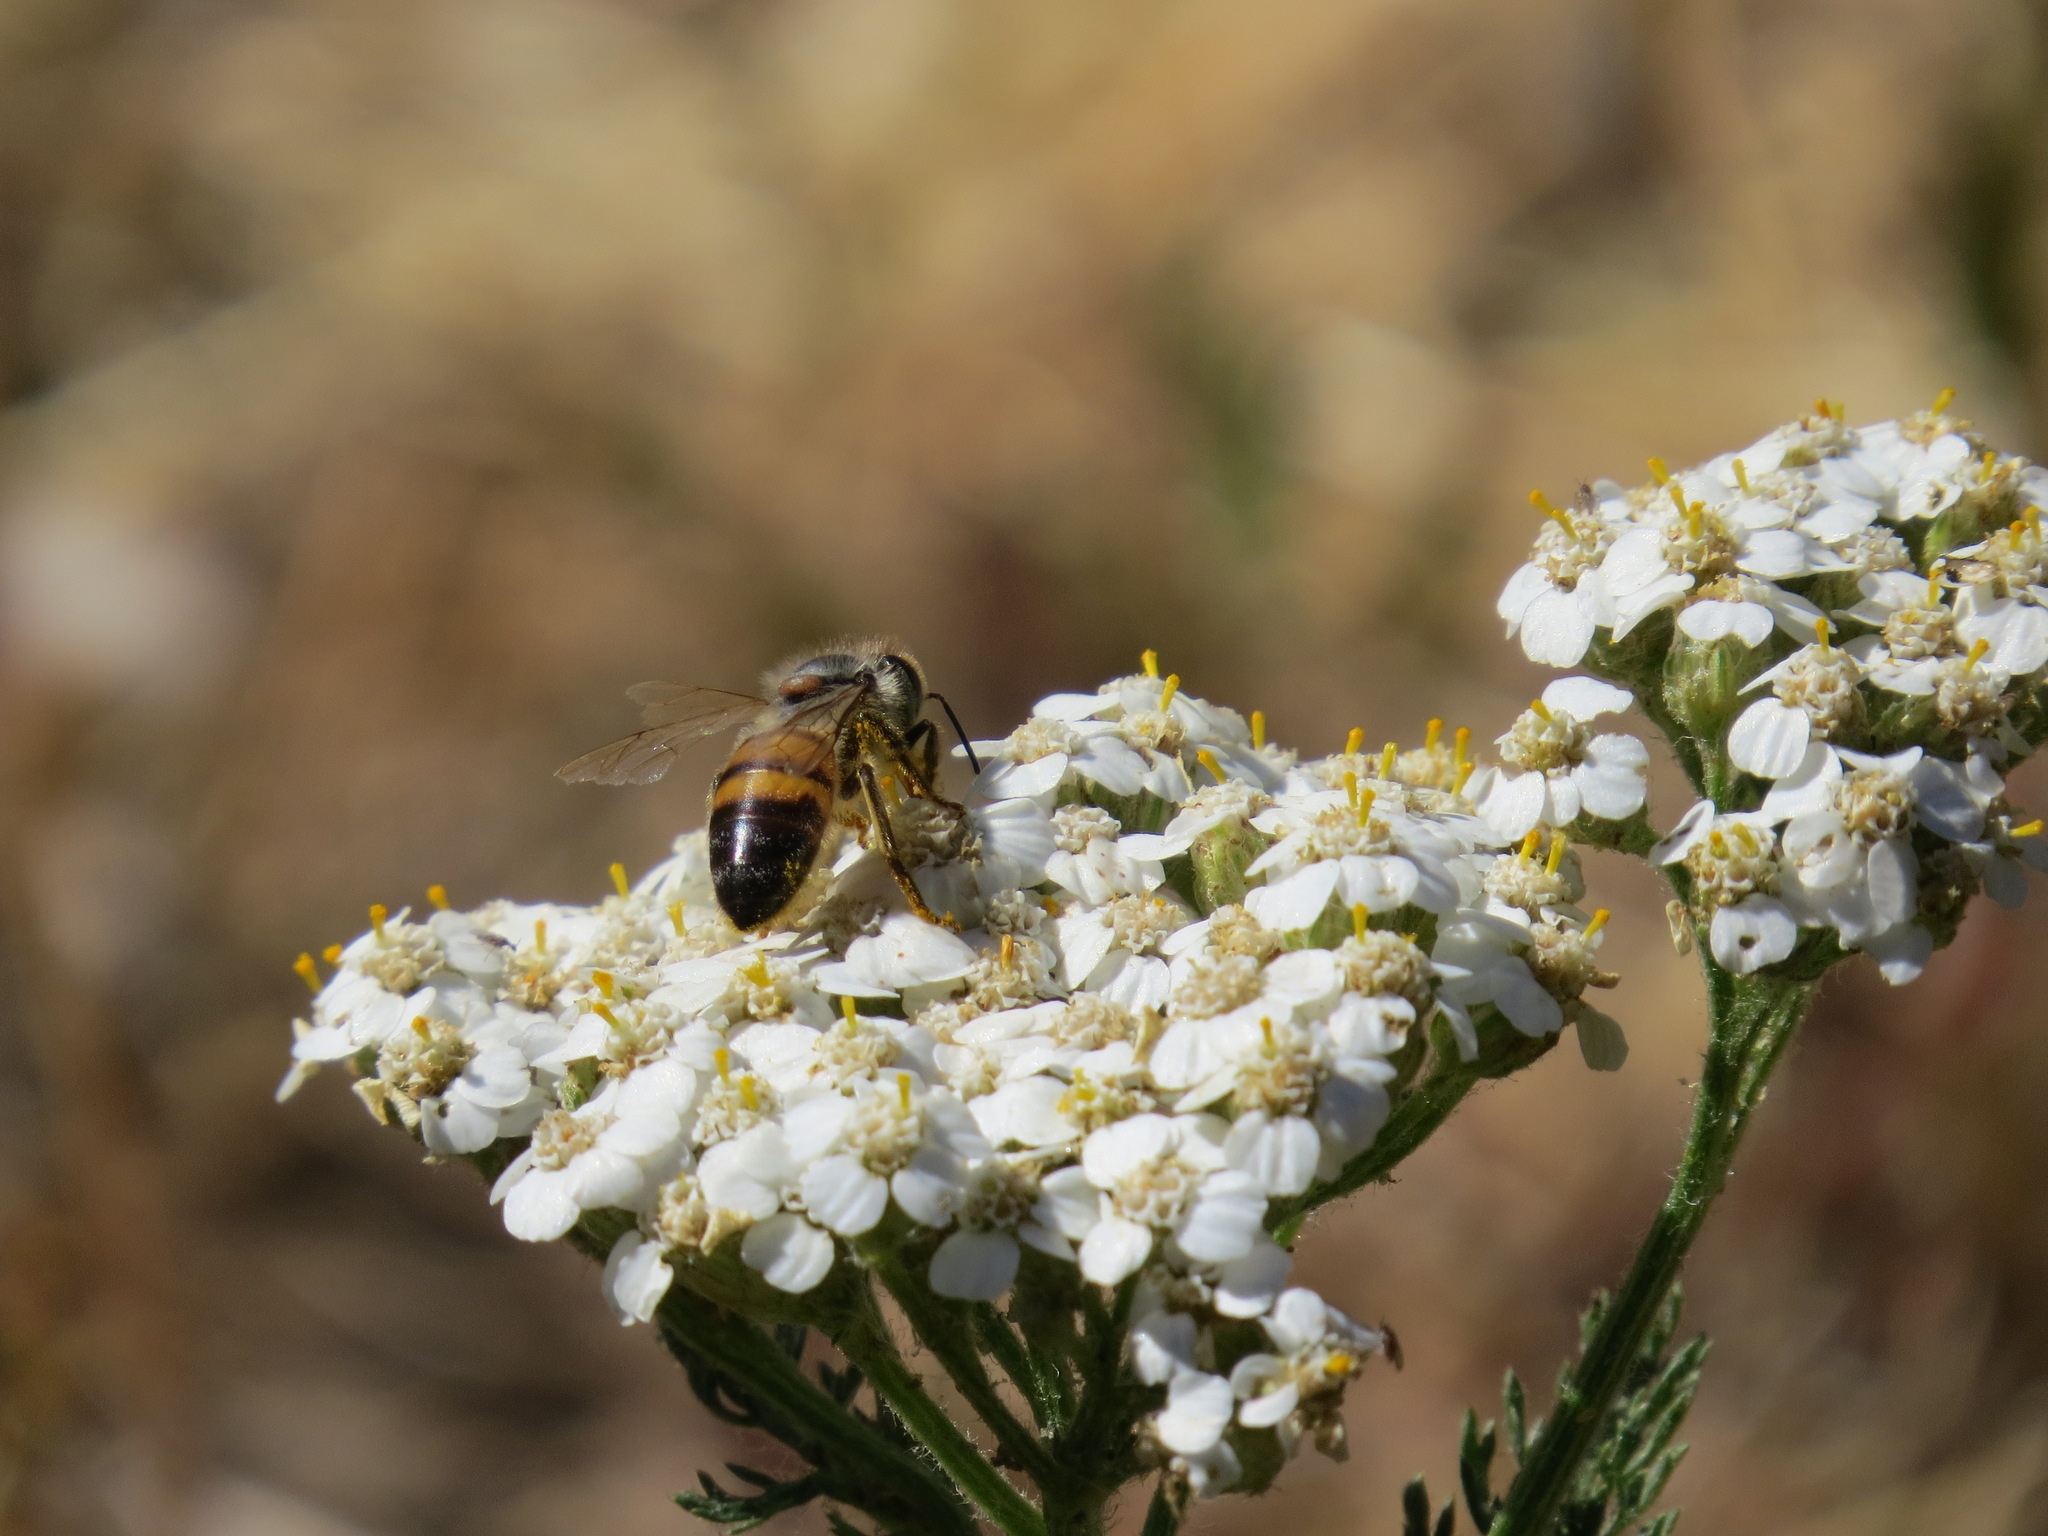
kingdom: Animalia
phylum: Arthropoda
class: Insecta
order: Hymenoptera
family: Apidae
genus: Apis
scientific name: Apis mellifera
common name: Honey bee
